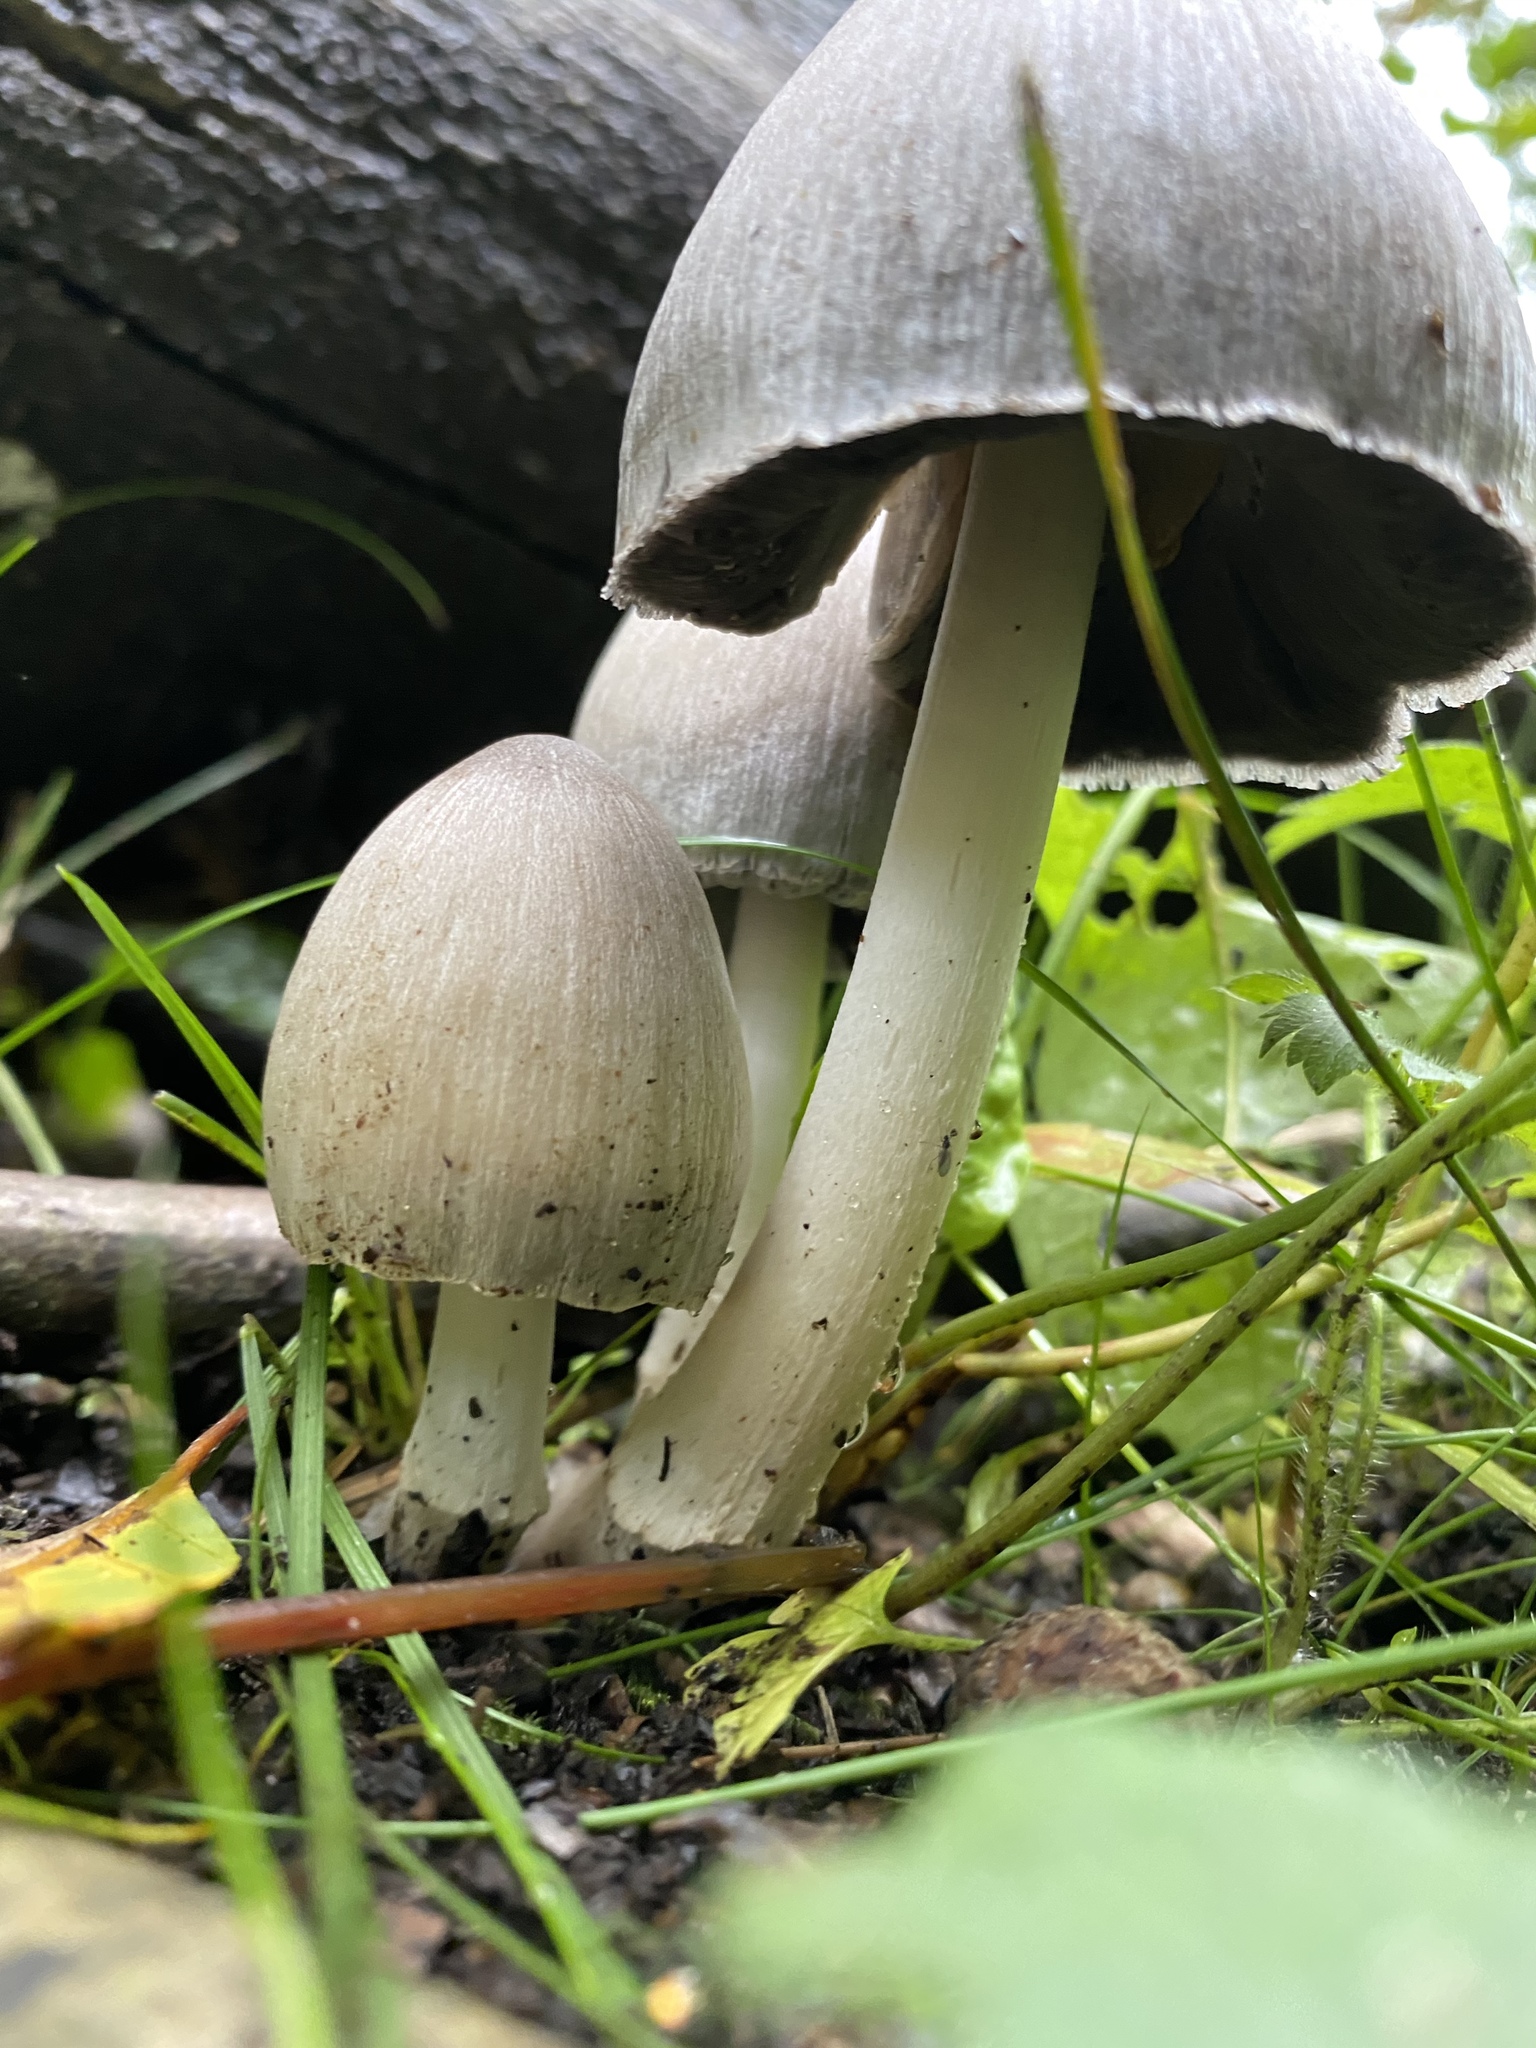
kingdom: Fungi
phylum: Basidiomycota
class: Agaricomycetes
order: Agaricales
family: Psathyrellaceae
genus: Coprinopsis
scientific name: Coprinopsis atramentaria
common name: Common ink-cap
